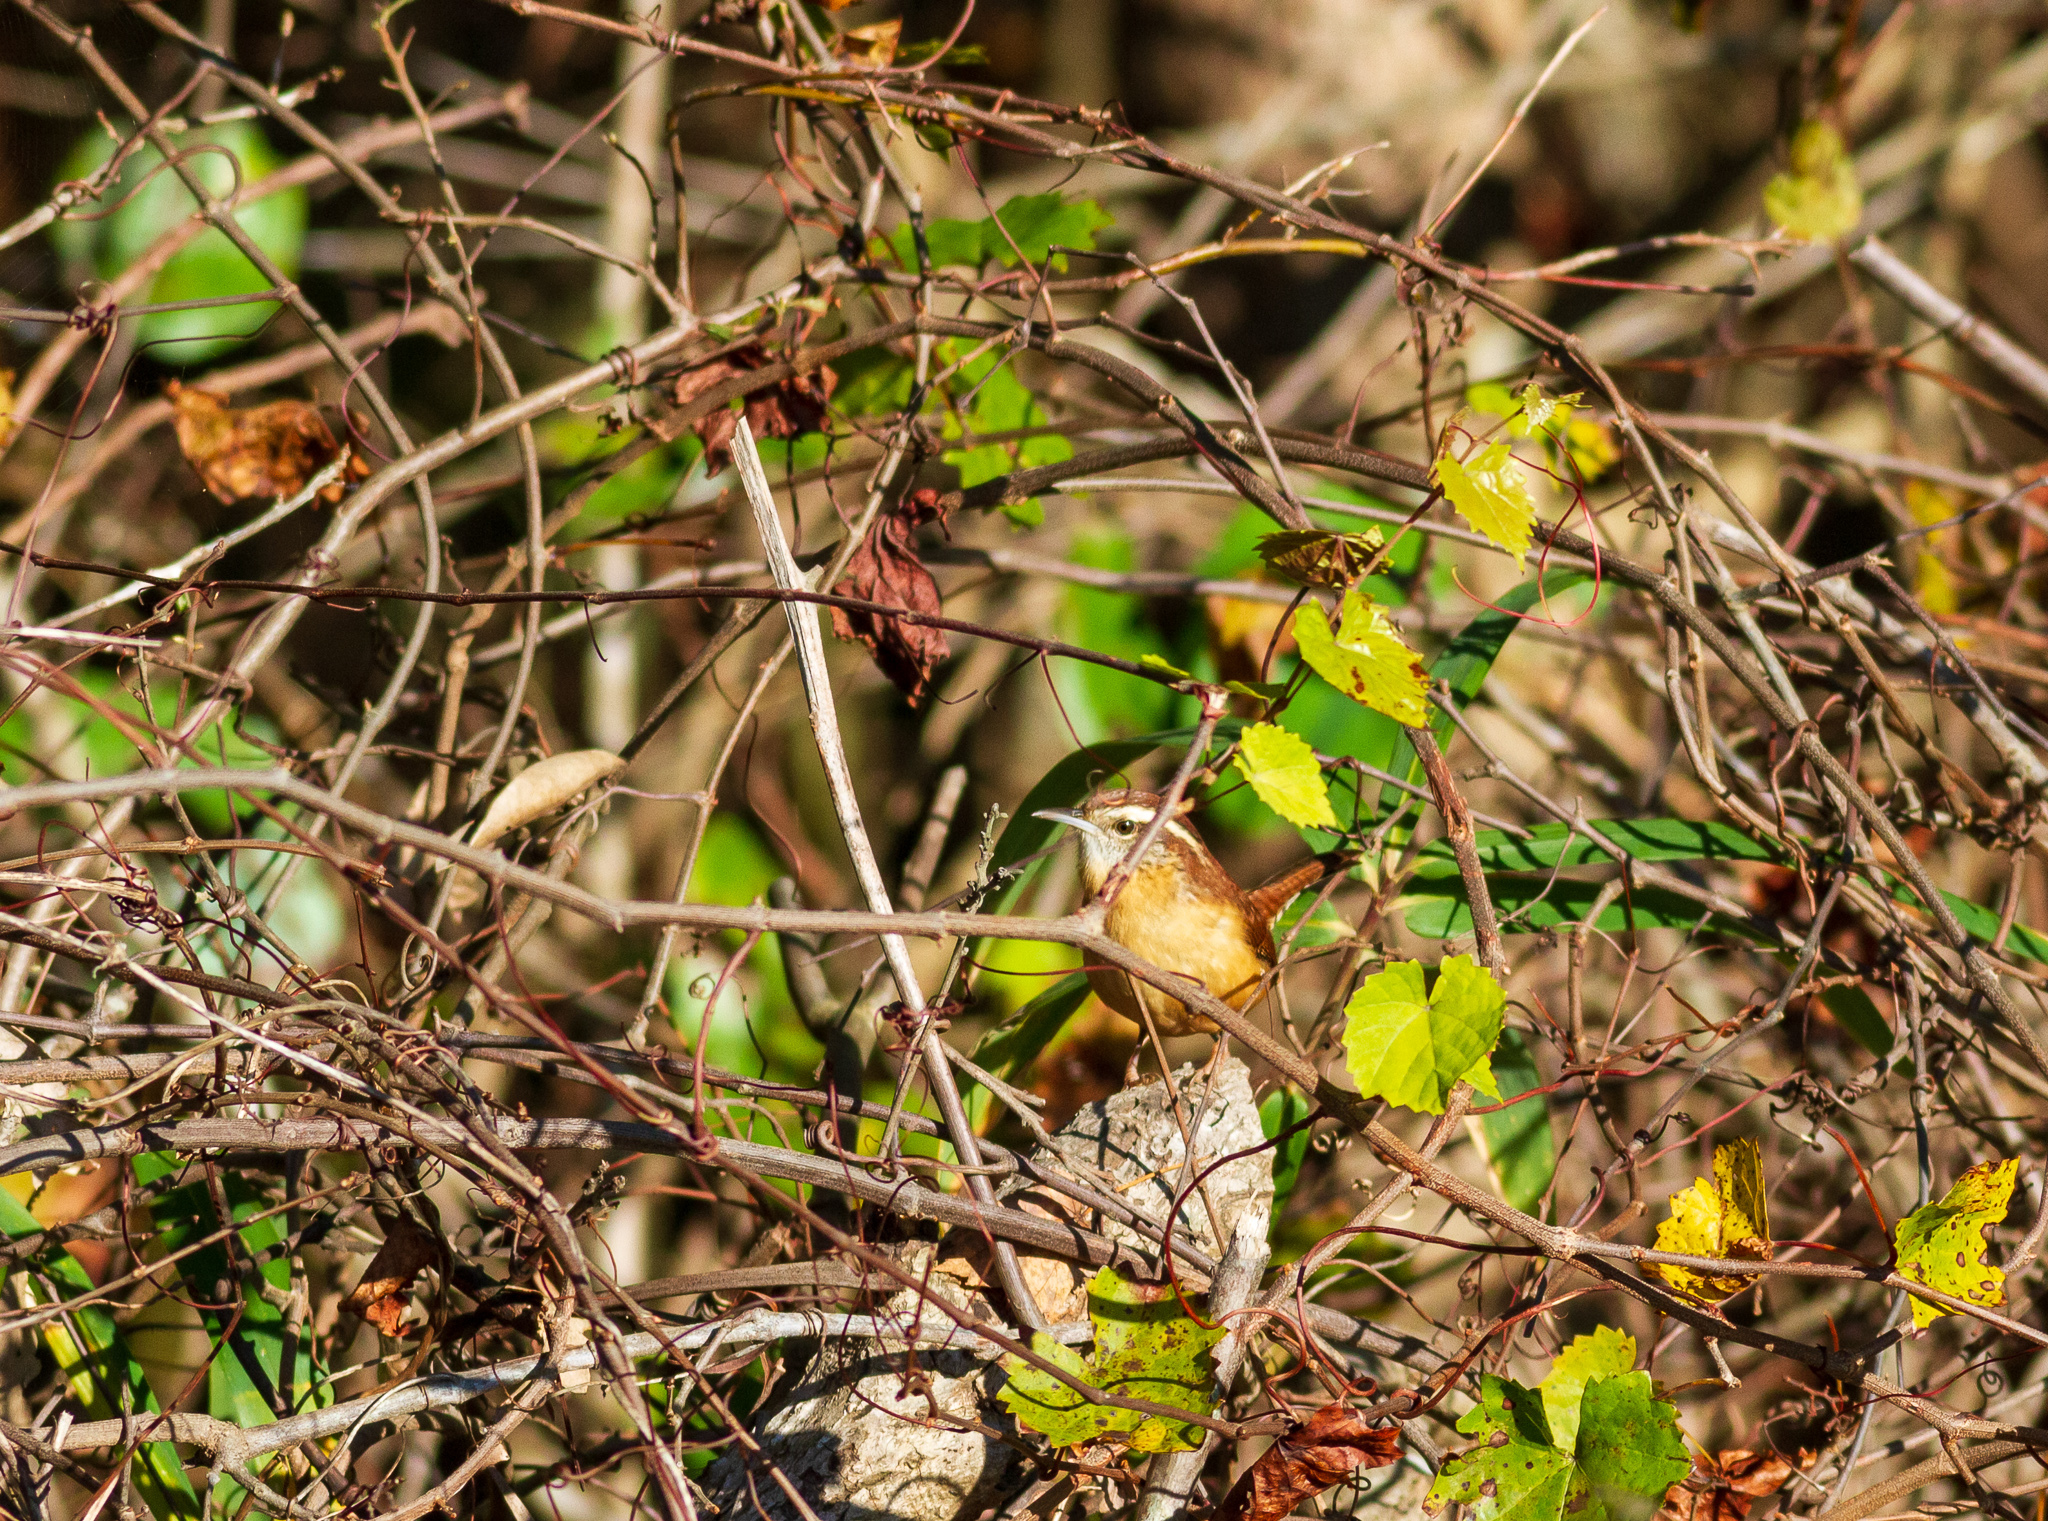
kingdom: Animalia
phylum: Chordata
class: Aves
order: Passeriformes
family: Troglodytidae
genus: Thryothorus
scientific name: Thryothorus ludovicianus
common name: Carolina wren
